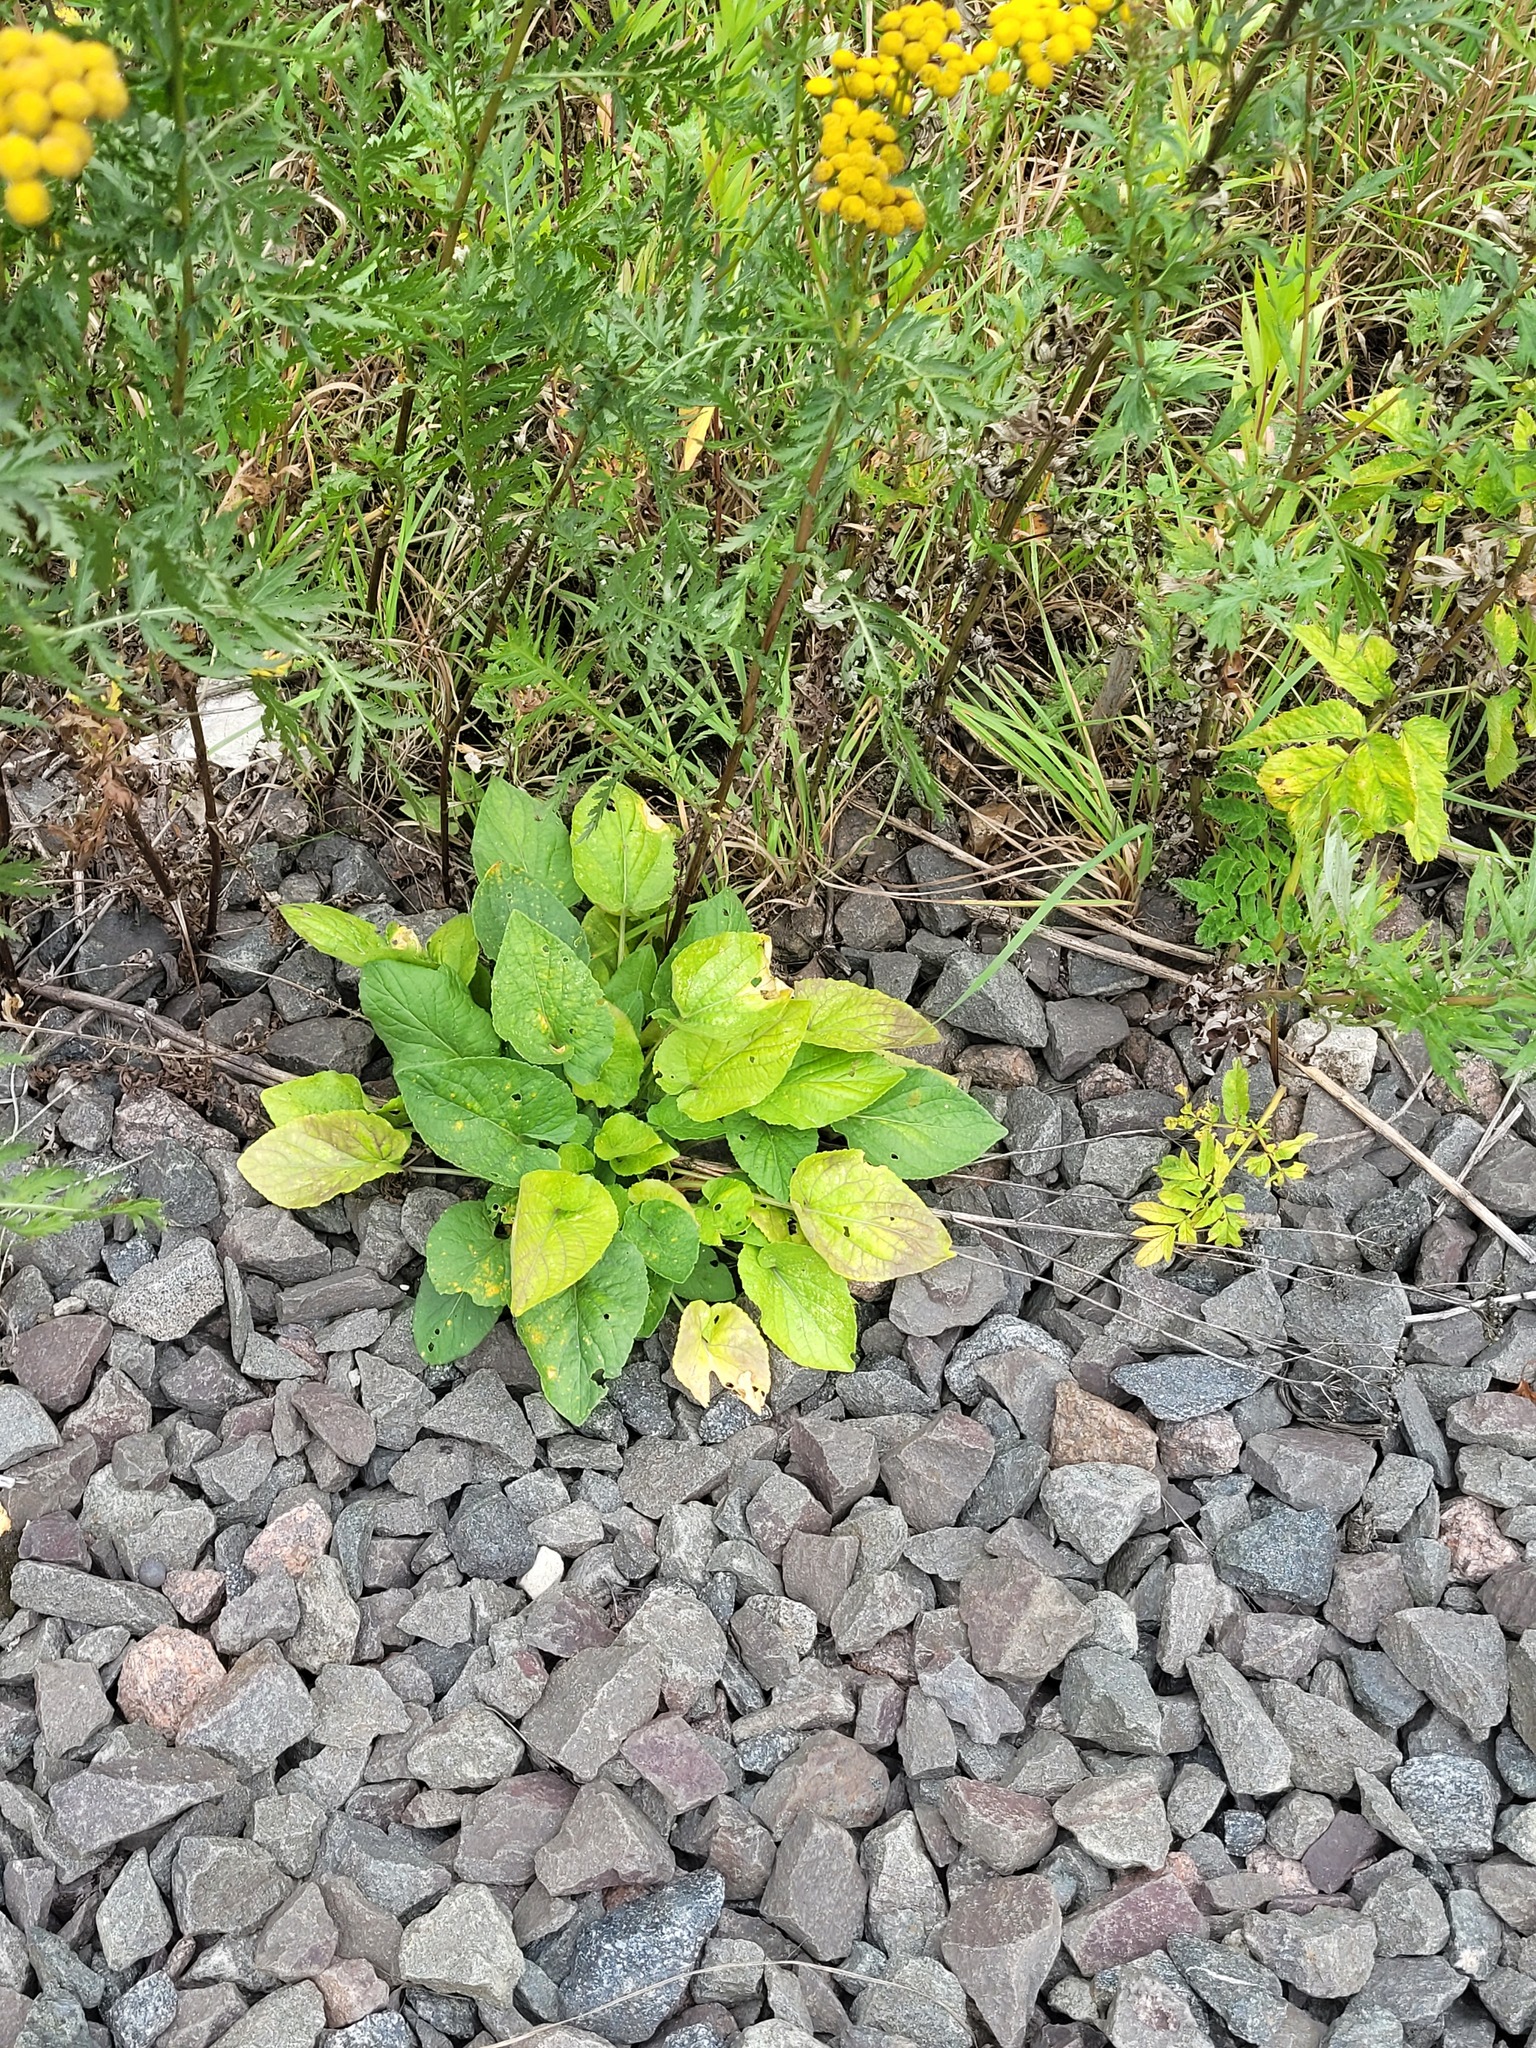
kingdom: Plantae
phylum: Tracheophyta
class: Magnoliopsida
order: Malpighiales
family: Violaceae
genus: Viola
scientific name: Viola hirta
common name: Hairy violet
